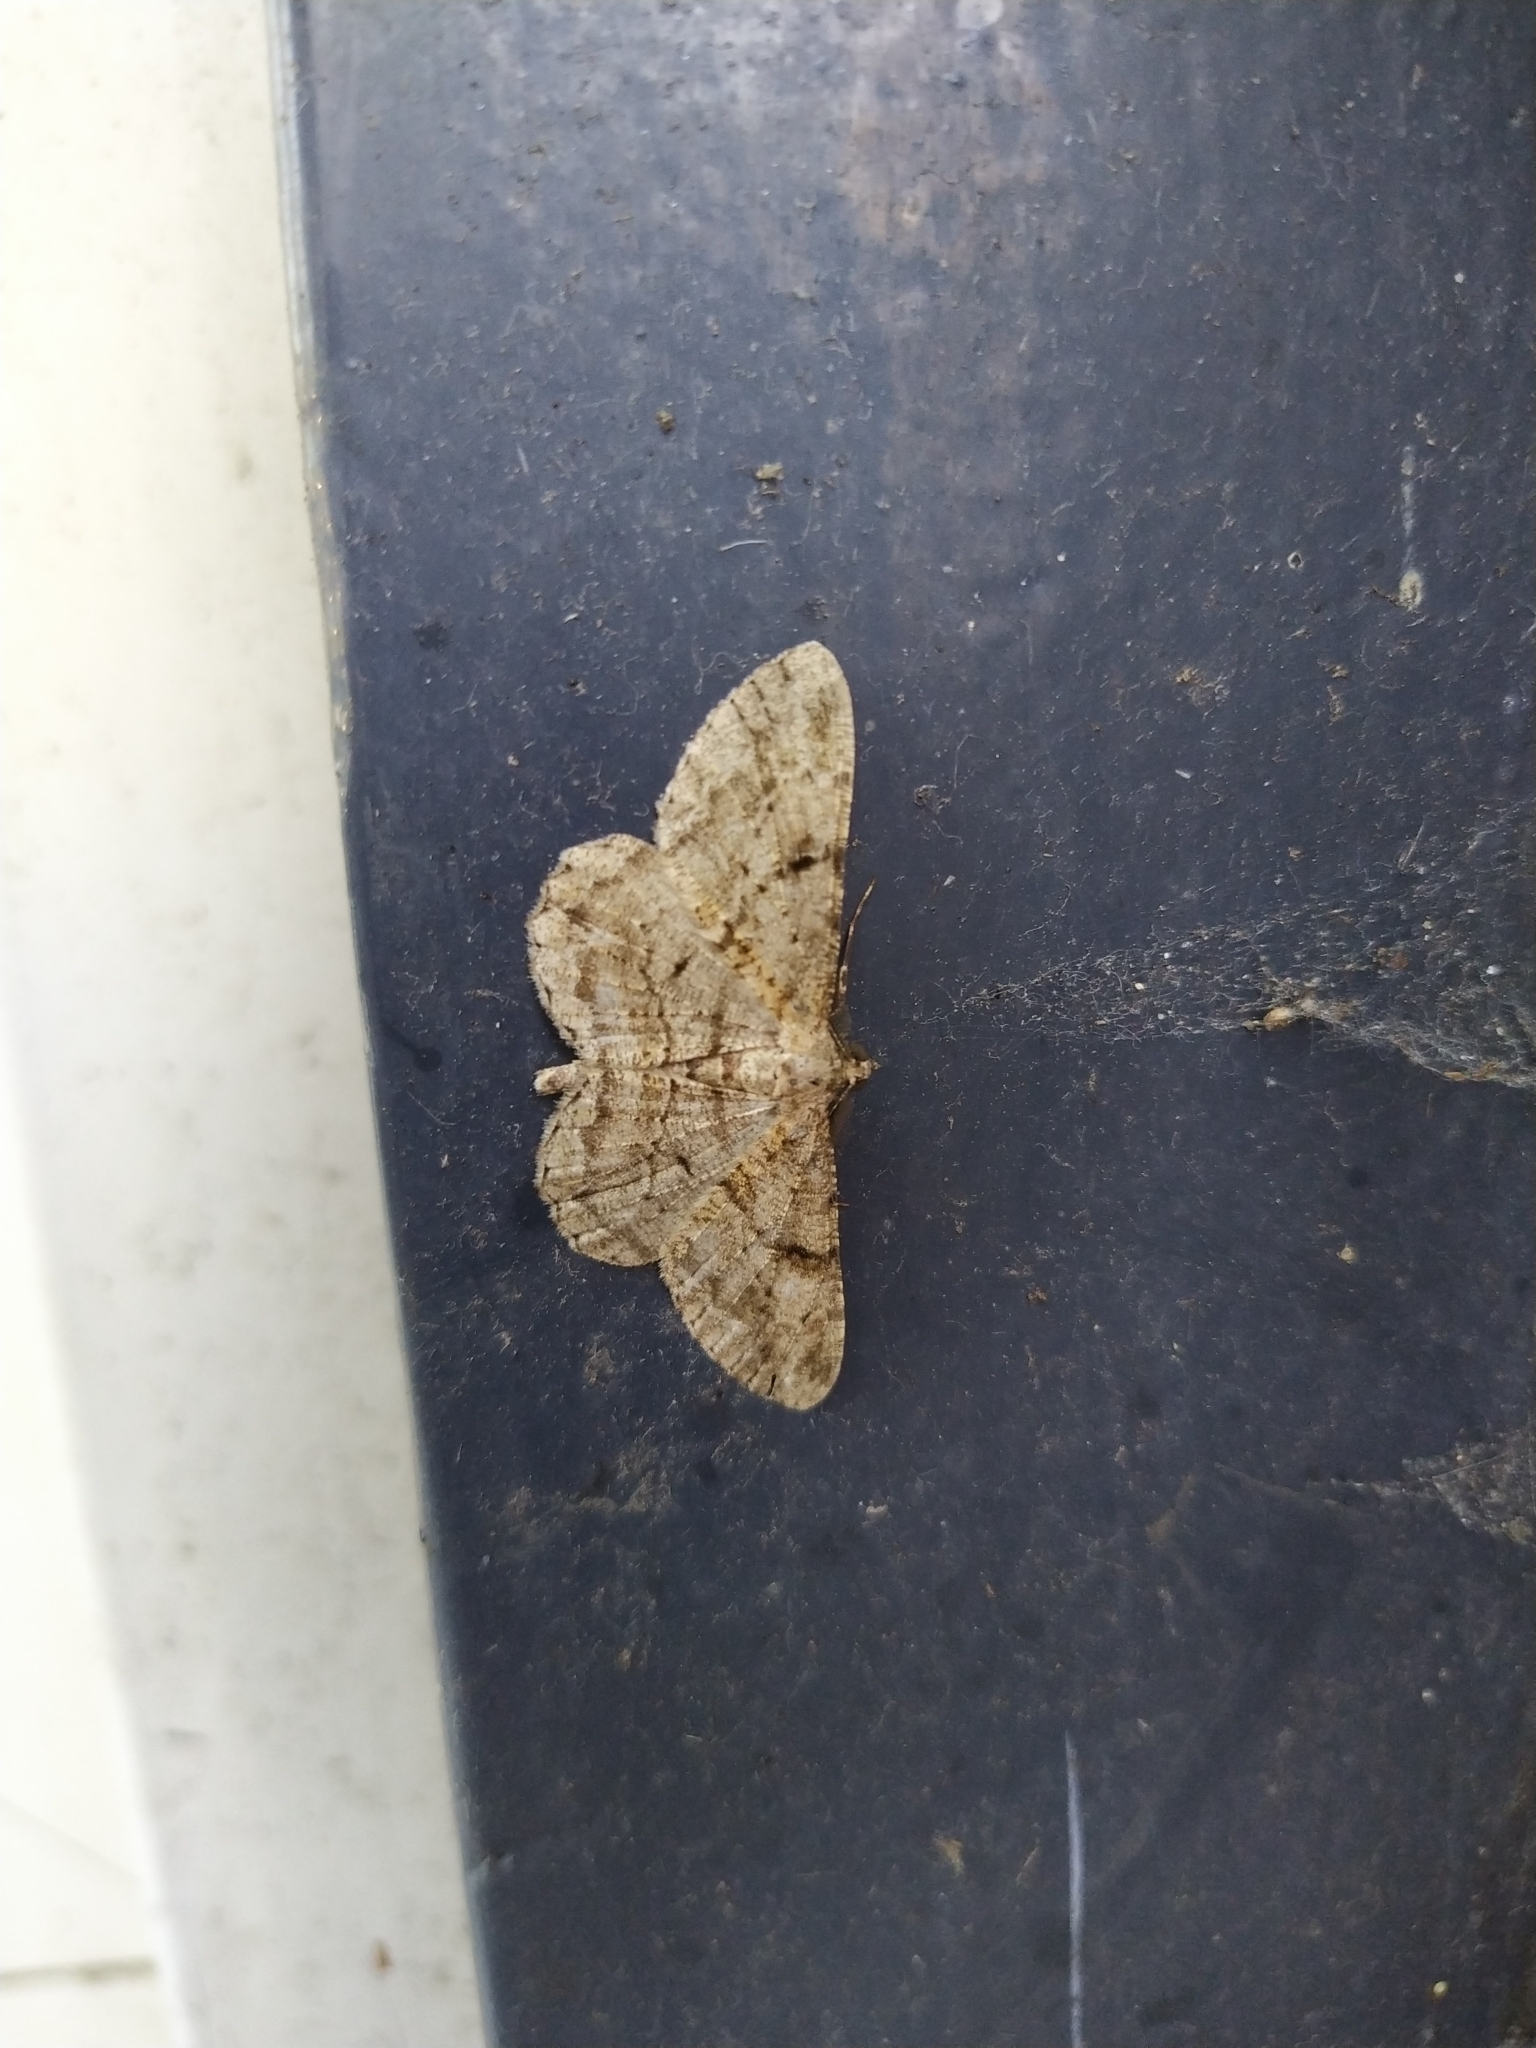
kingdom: Animalia
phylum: Arthropoda
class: Insecta
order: Lepidoptera
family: Geometridae
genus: Peribatodes
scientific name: Peribatodes rhomboidaria
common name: Willow beauty
